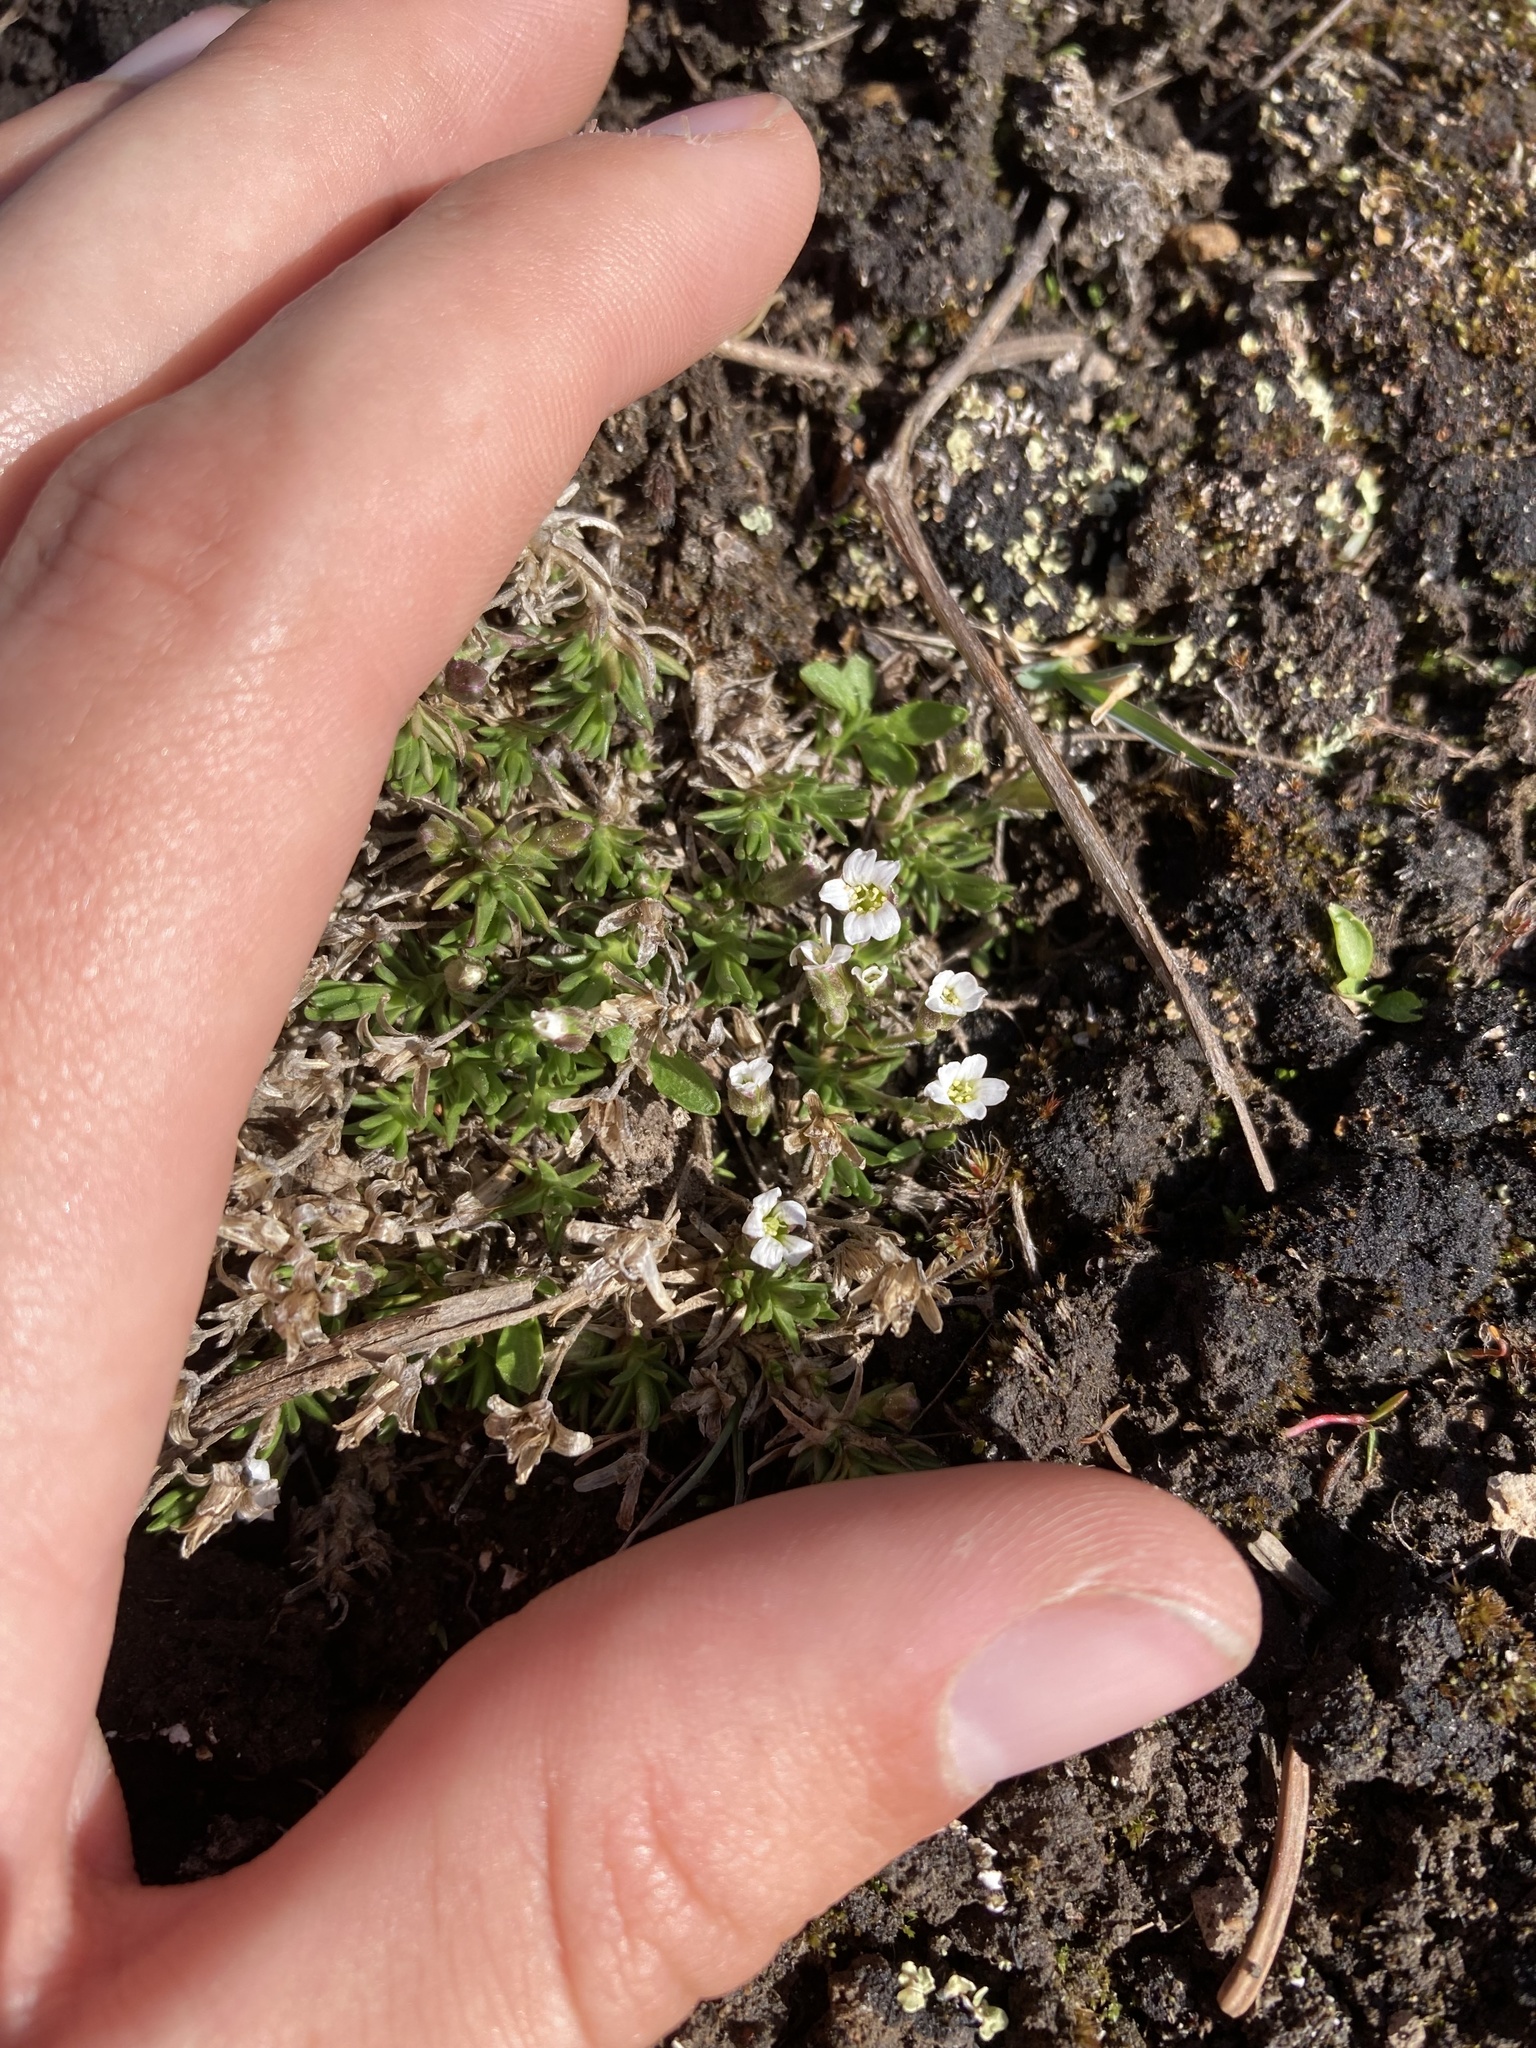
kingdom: Plantae
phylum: Tracheophyta
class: Magnoliopsida
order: Caryophyllales
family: Caryophyllaceae
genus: Cherleria
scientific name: Cherleria biflora
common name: Mountain sandwort
